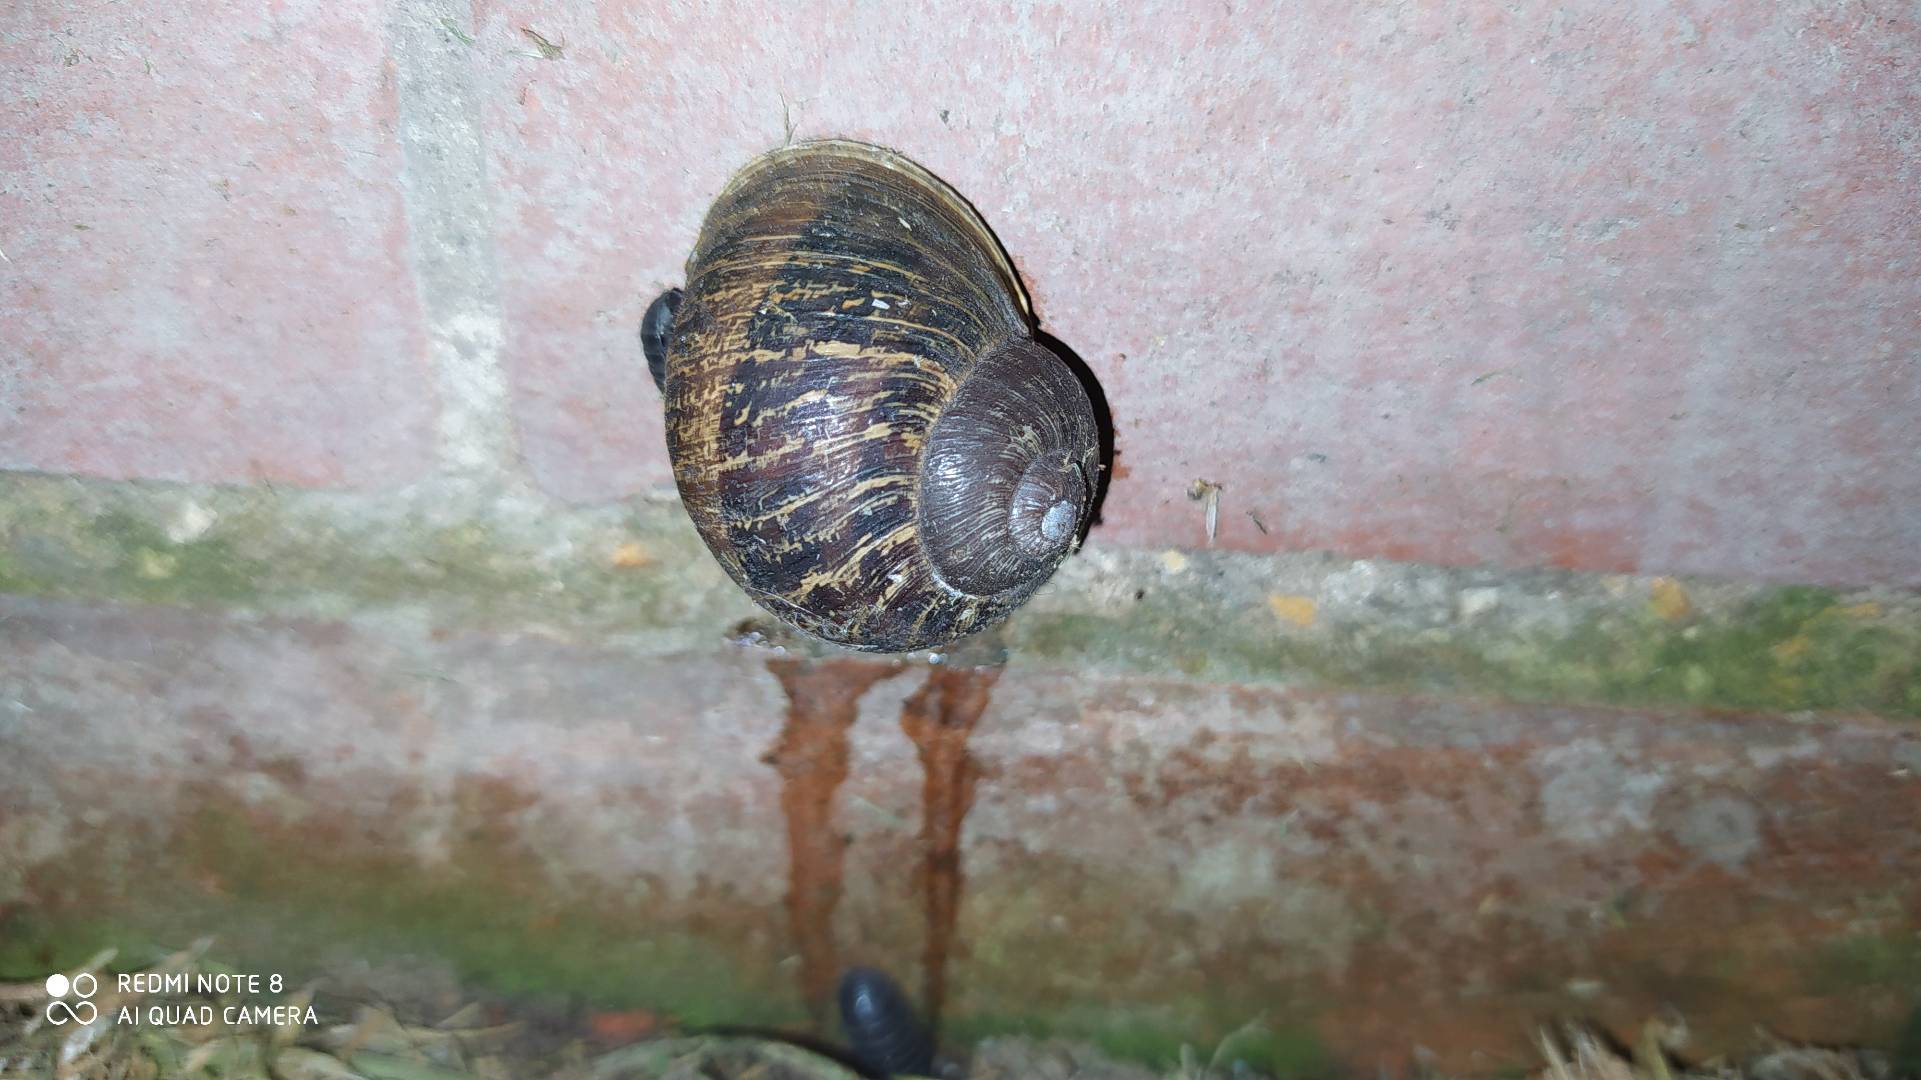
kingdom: Animalia
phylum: Mollusca
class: Gastropoda
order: Stylommatophora
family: Helicidae
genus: Cornu
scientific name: Cornu aspersum
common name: Brown garden snail
